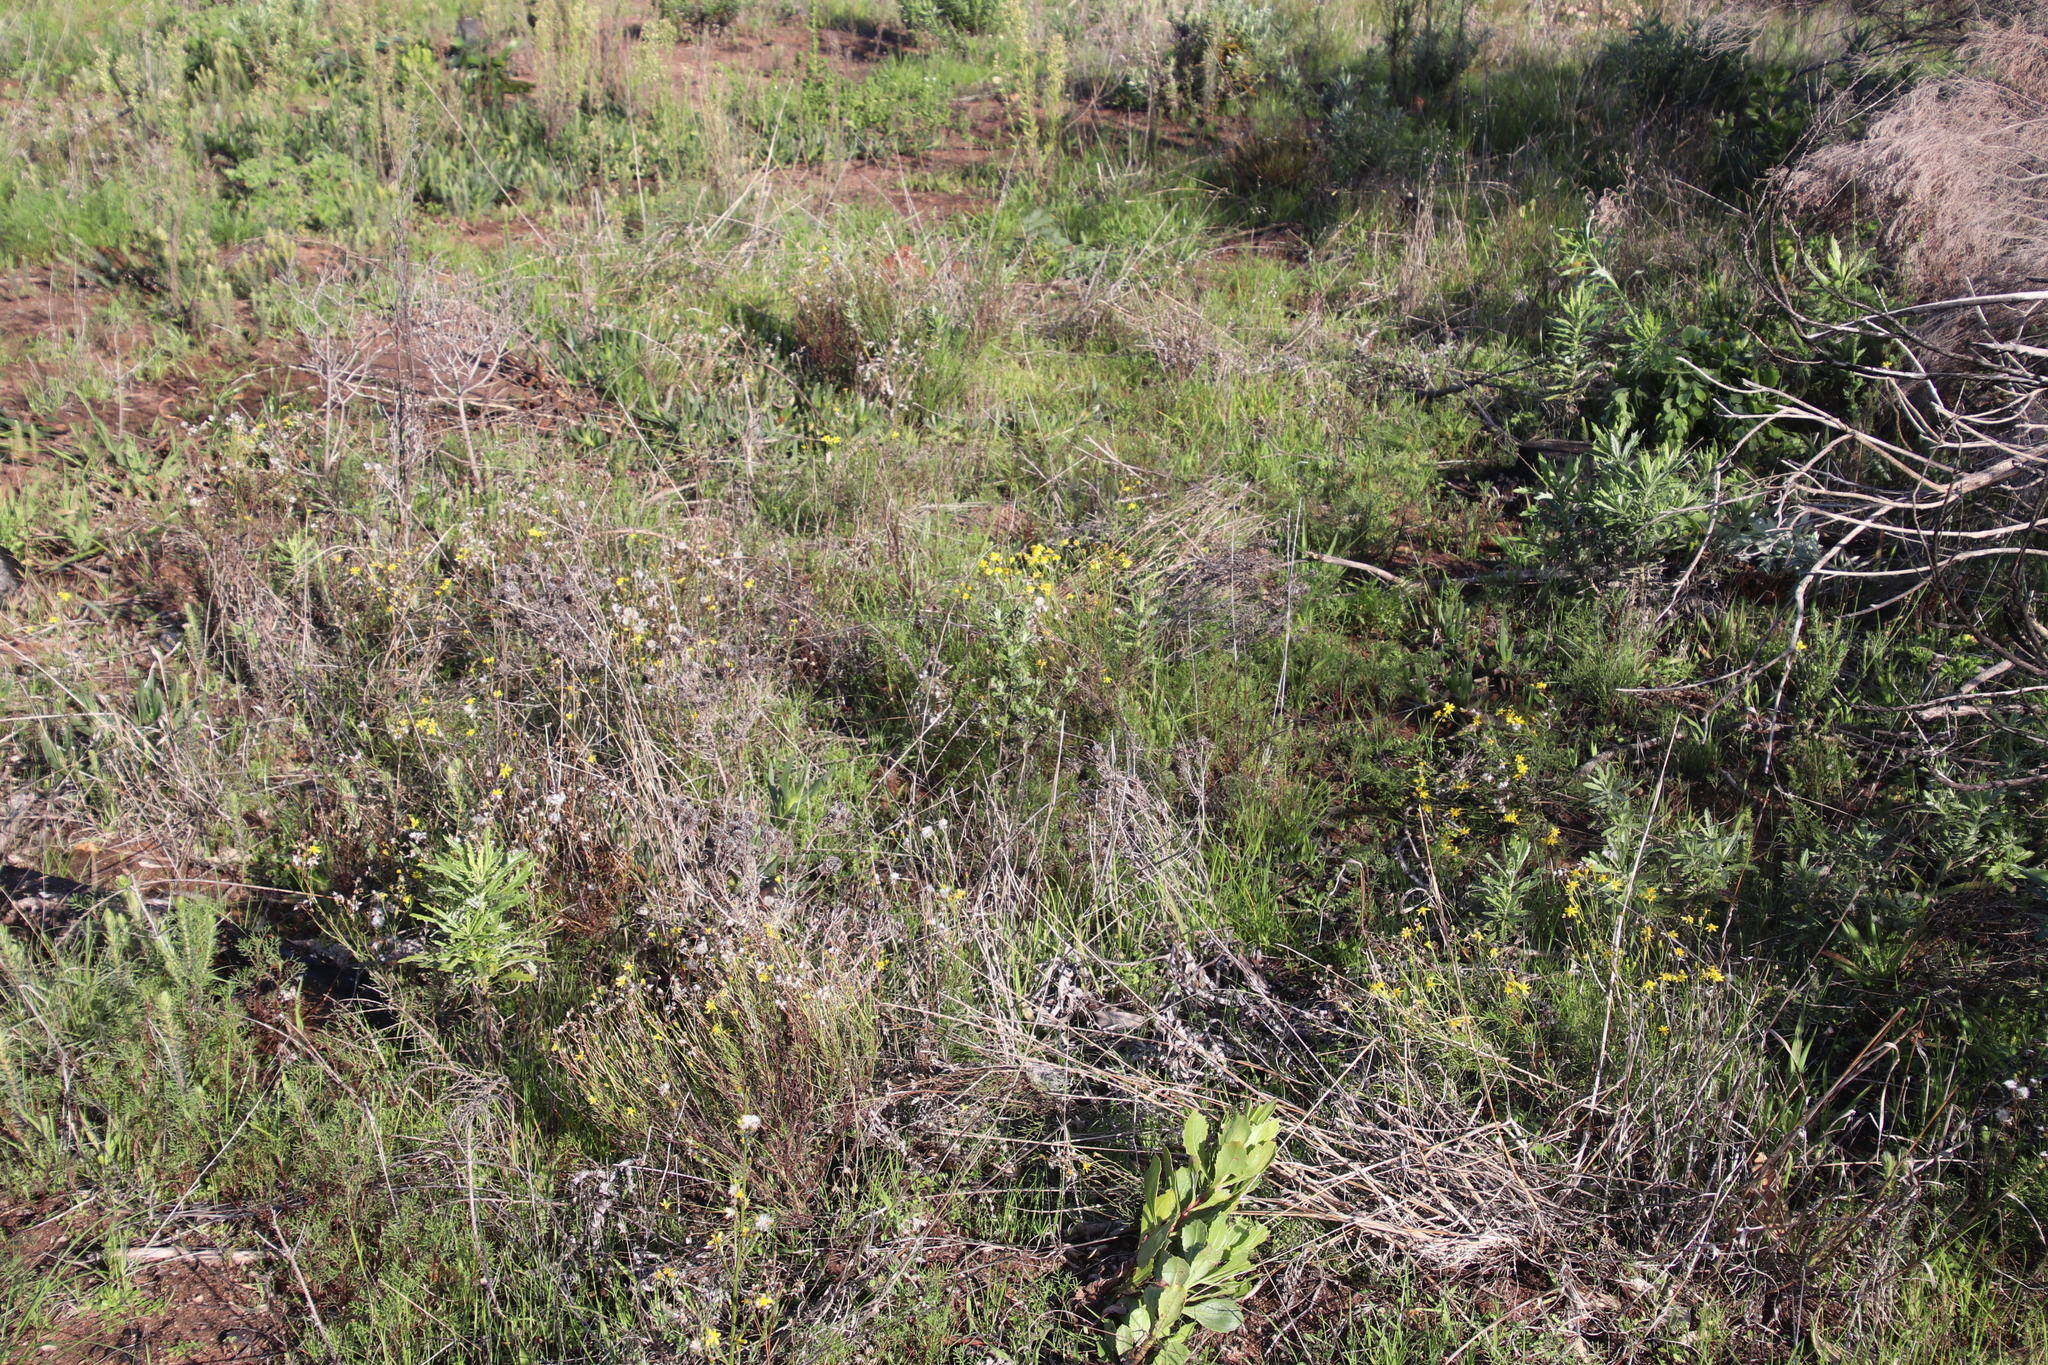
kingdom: Plantae
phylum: Tracheophyta
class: Magnoliopsida
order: Asterales
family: Asteraceae
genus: Senecio
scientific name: Senecio burchellii
